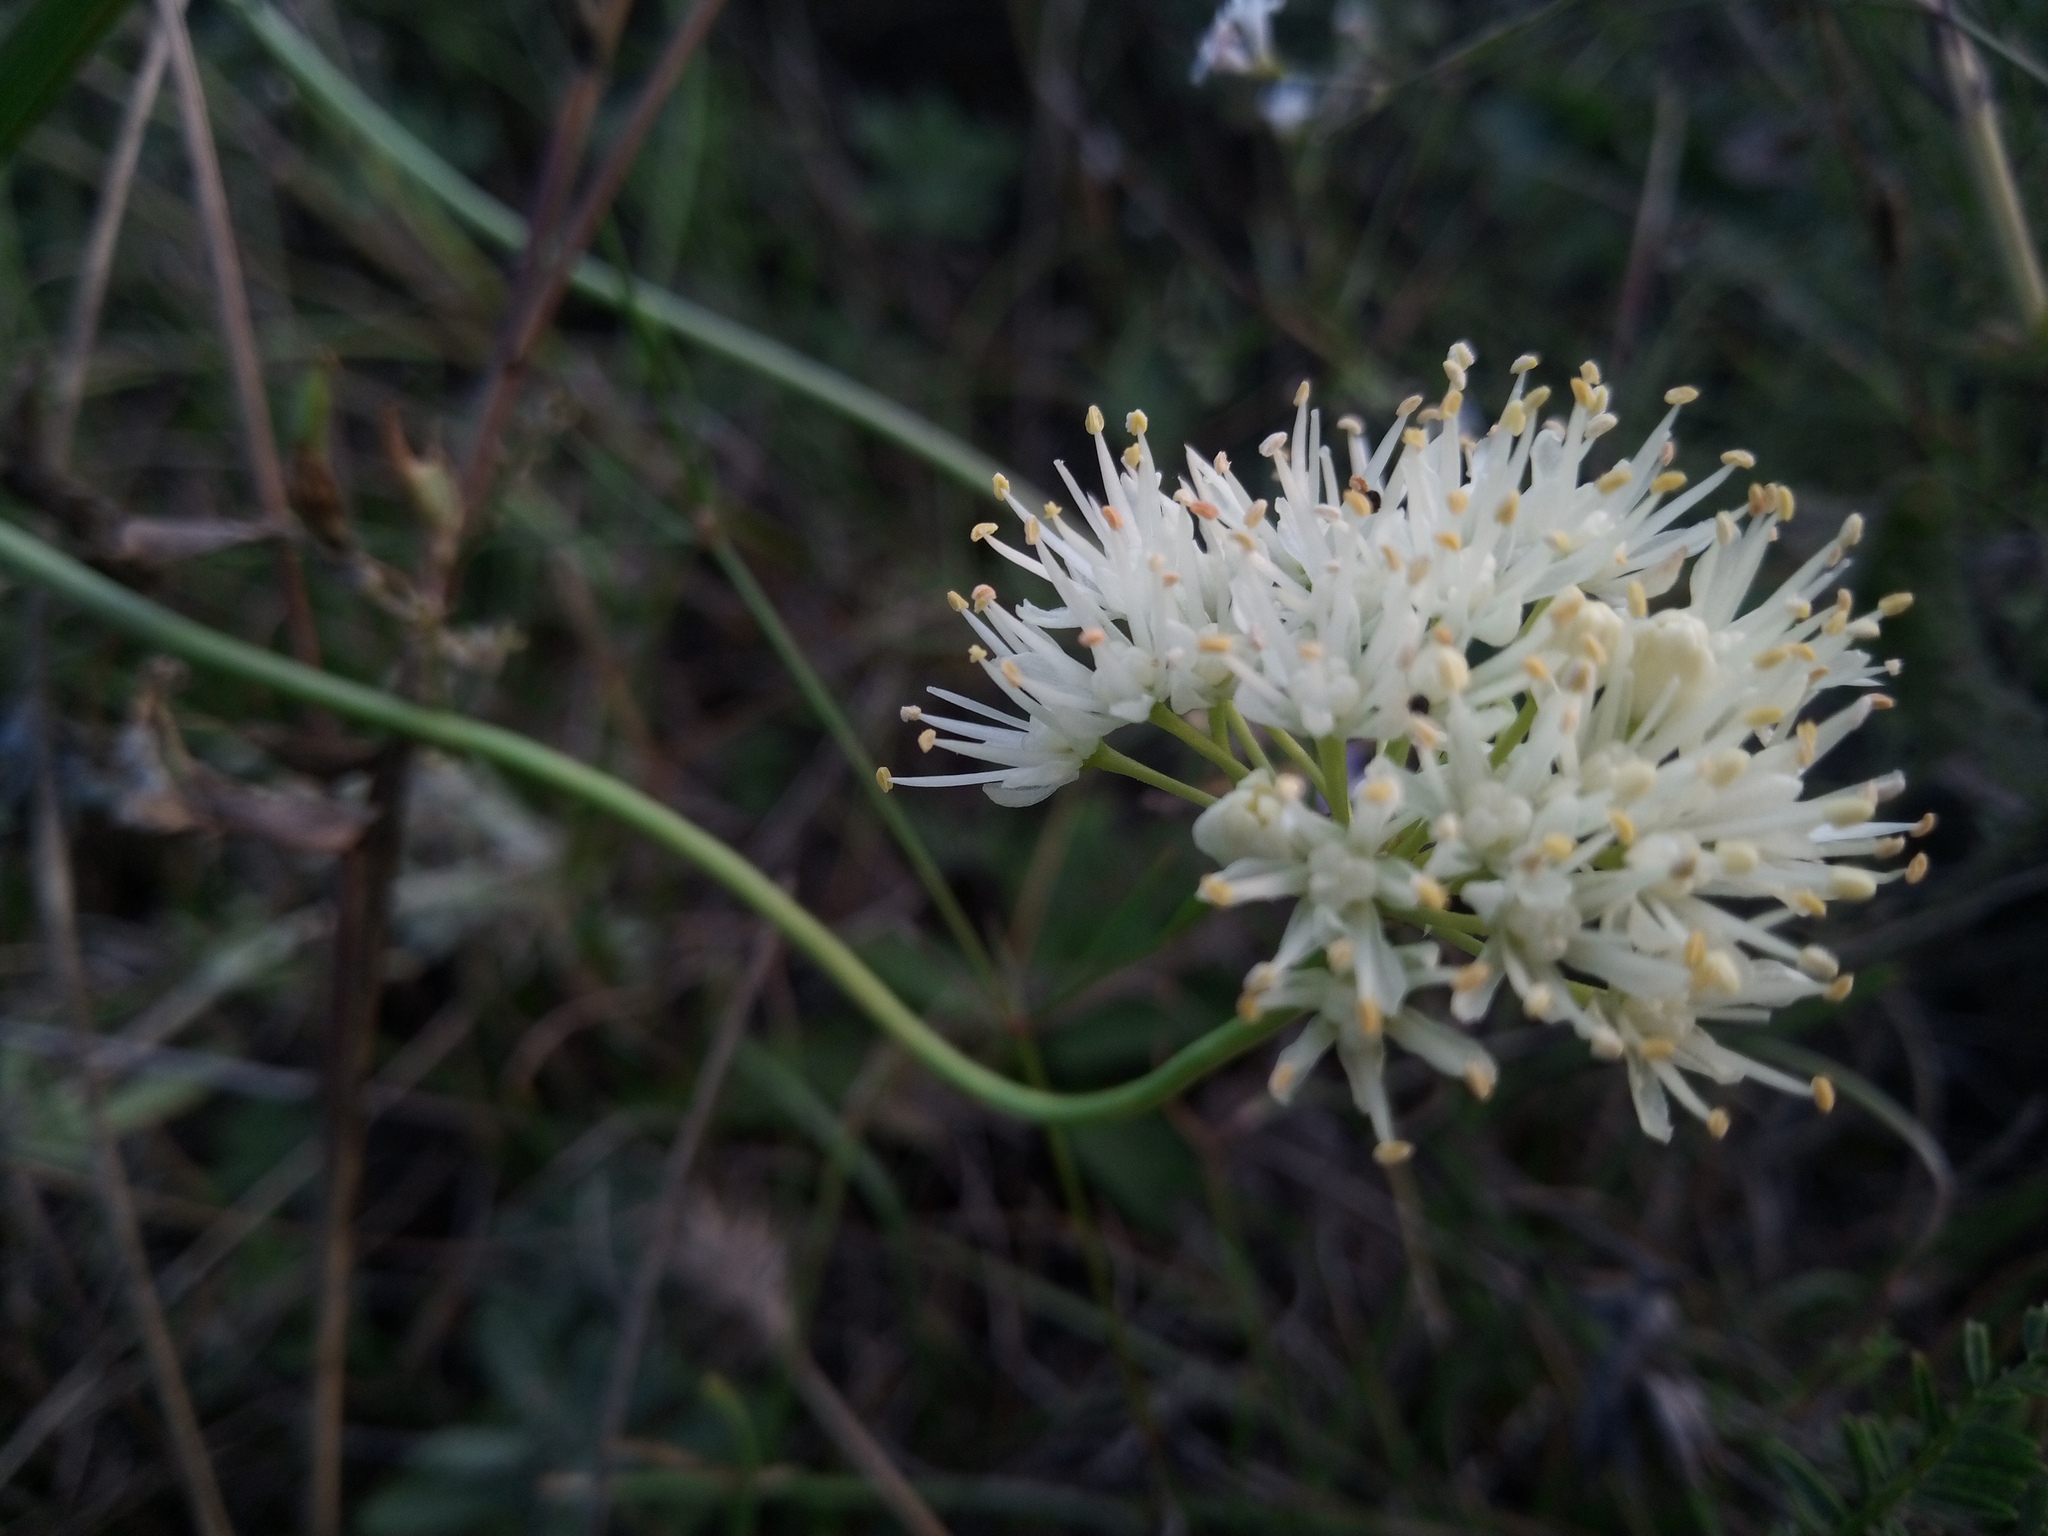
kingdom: Plantae
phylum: Tracheophyta
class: Liliopsida
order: Asparagales
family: Amaryllidaceae
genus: Allium
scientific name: Allium flavescens
